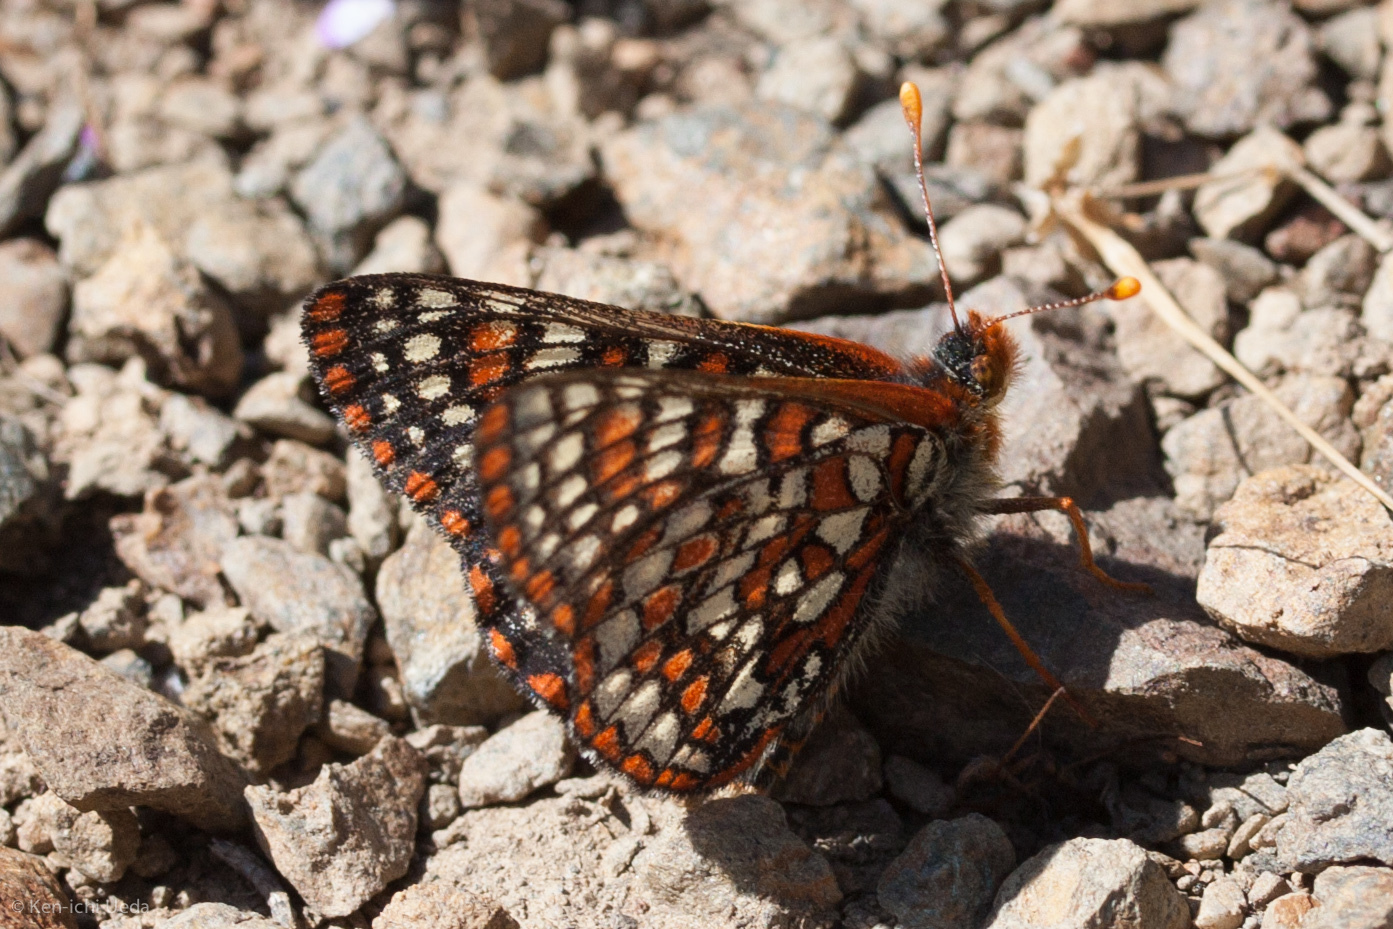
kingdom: Animalia
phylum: Arthropoda
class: Insecta
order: Lepidoptera
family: Nymphalidae
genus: Occidryas
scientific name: Occidryas chalcedona
